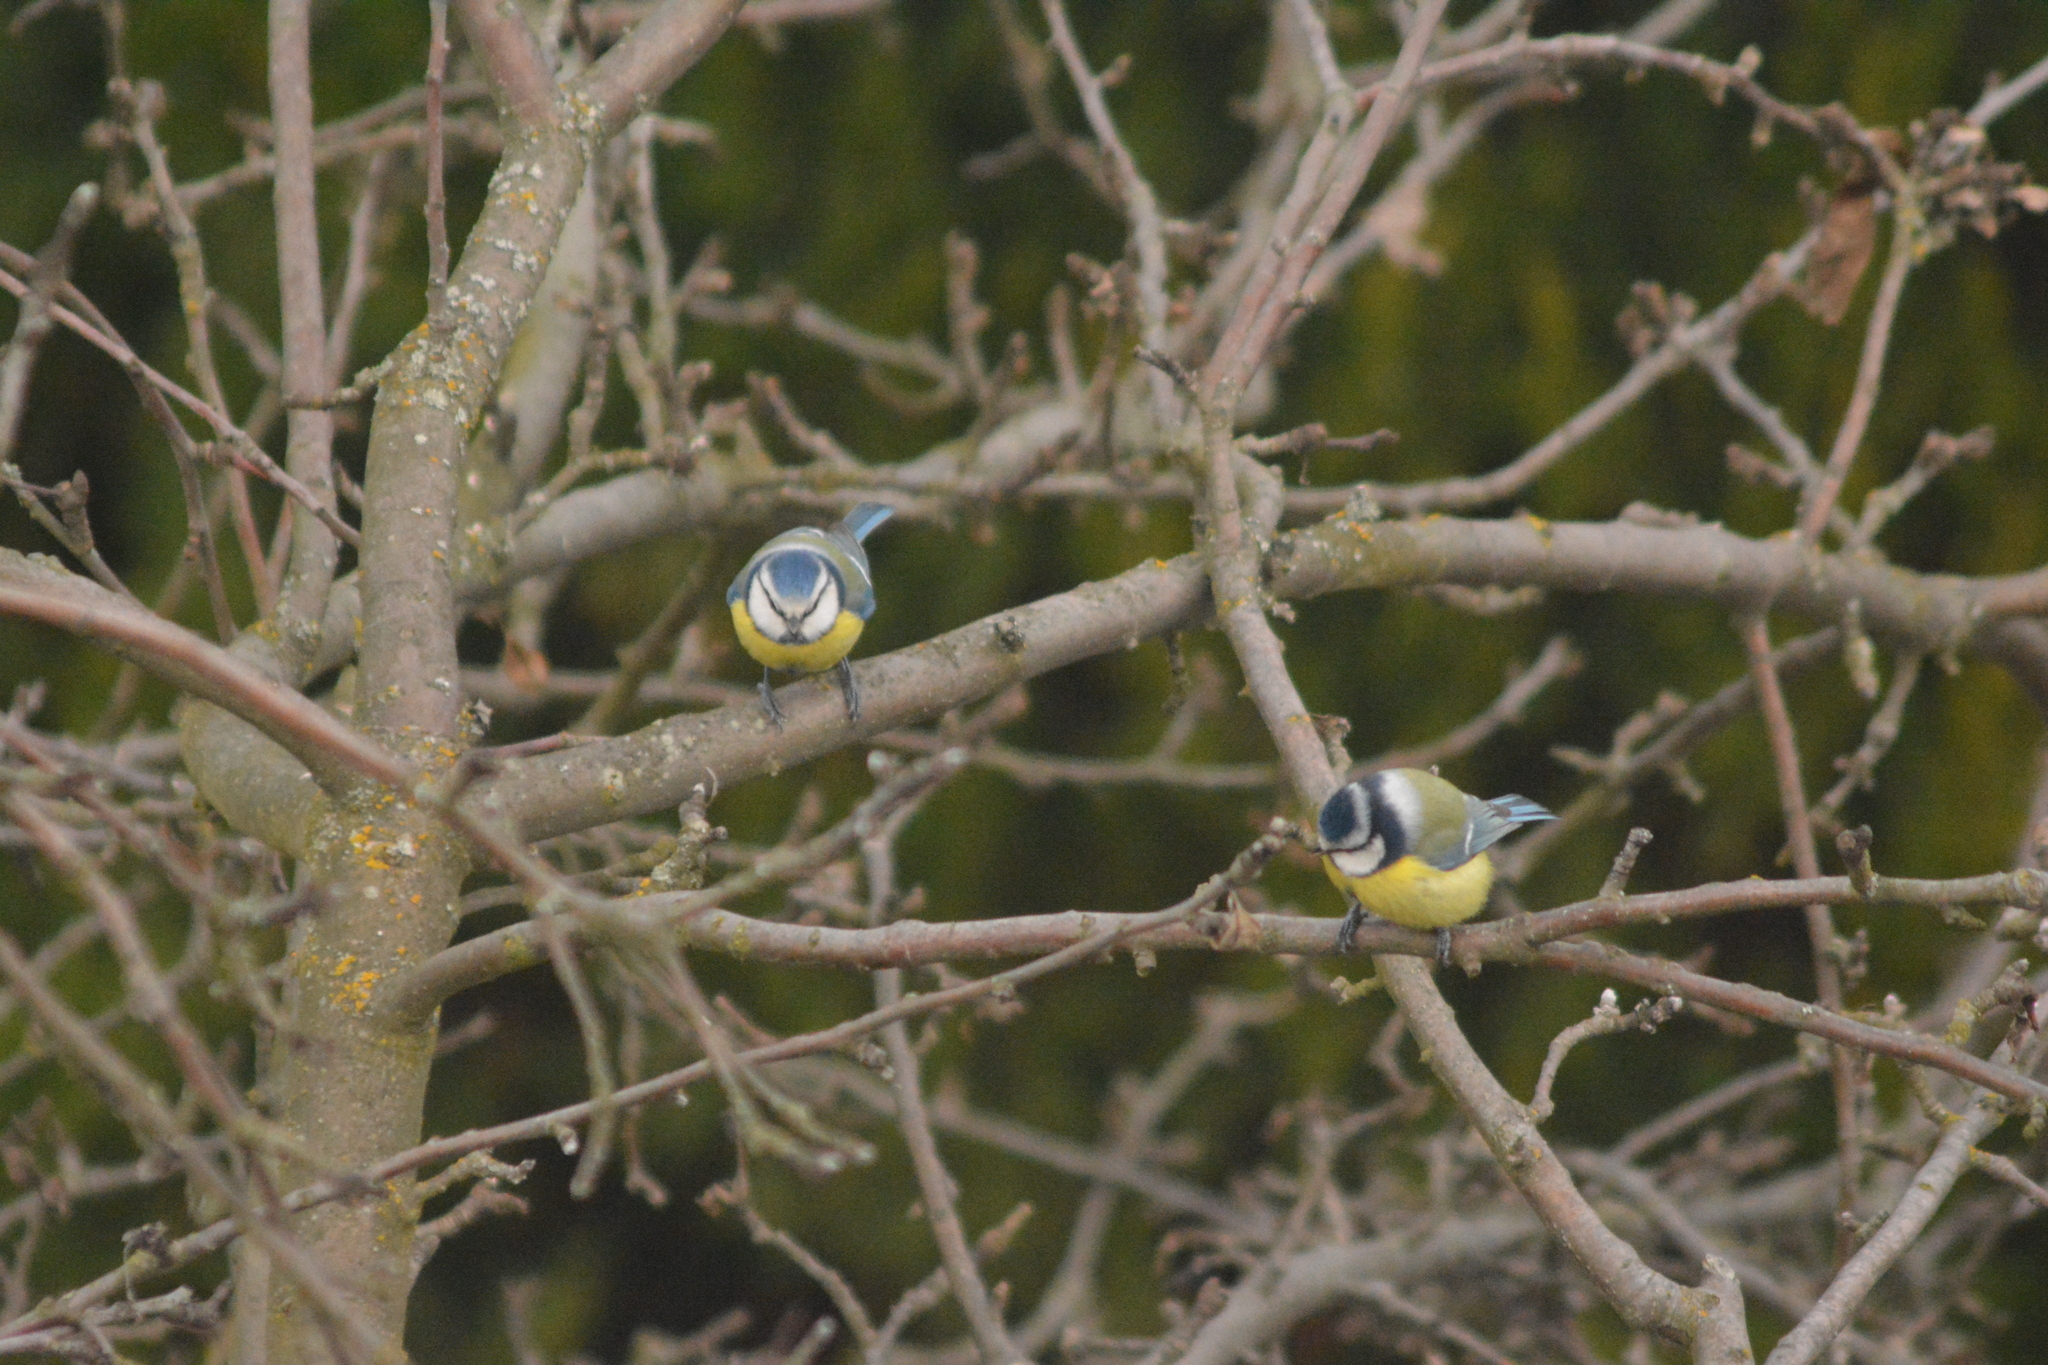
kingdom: Animalia
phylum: Chordata
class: Aves
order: Passeriformes
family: Paridae
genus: Cyanistes
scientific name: Cyanistes caeruleus
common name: Eurasian blue tit
